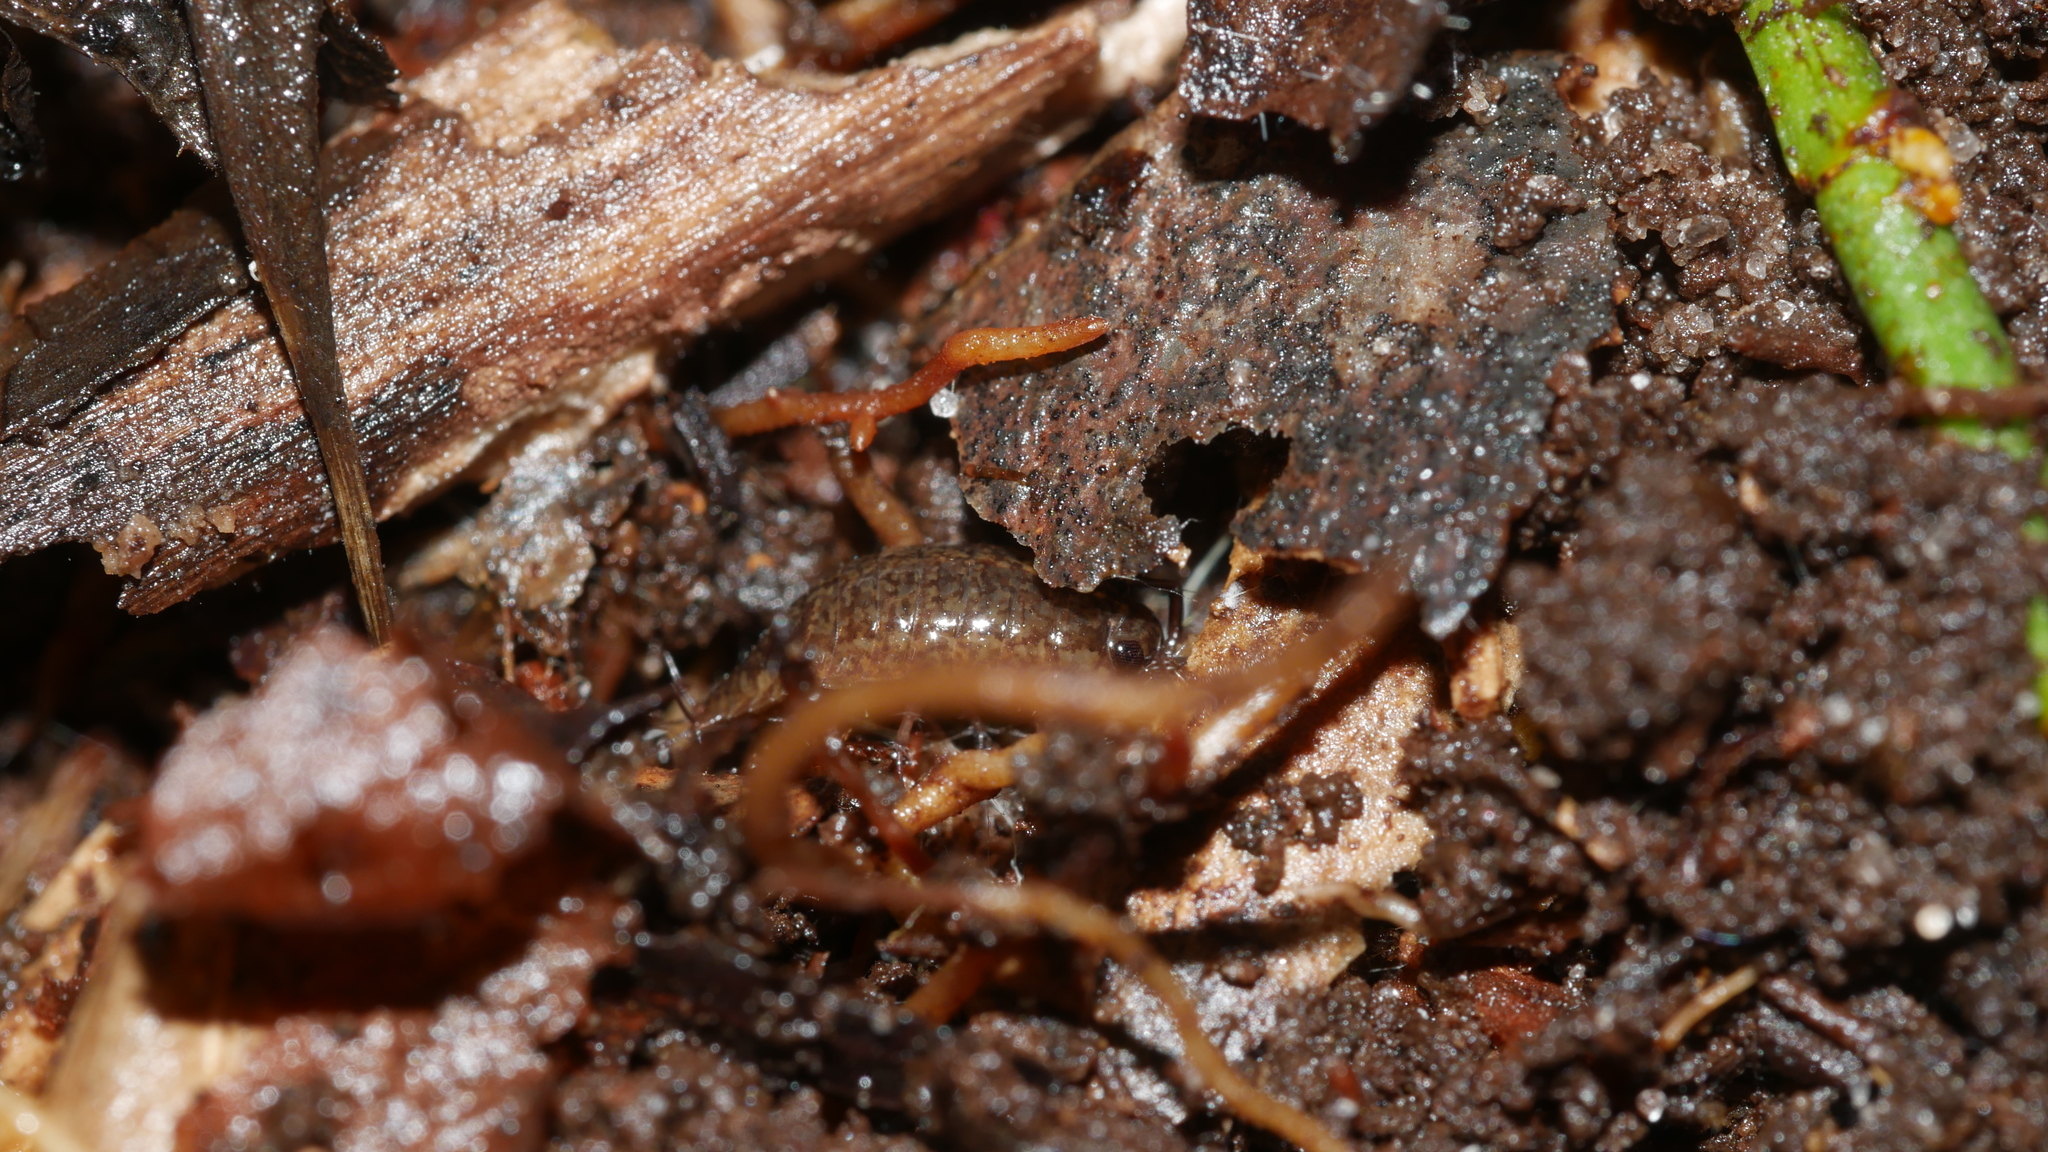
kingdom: Animalia
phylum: Arthropoda
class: Malacostraca
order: Isopoda
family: Ligiidae
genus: Ligidium
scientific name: Ligidium elrodii
